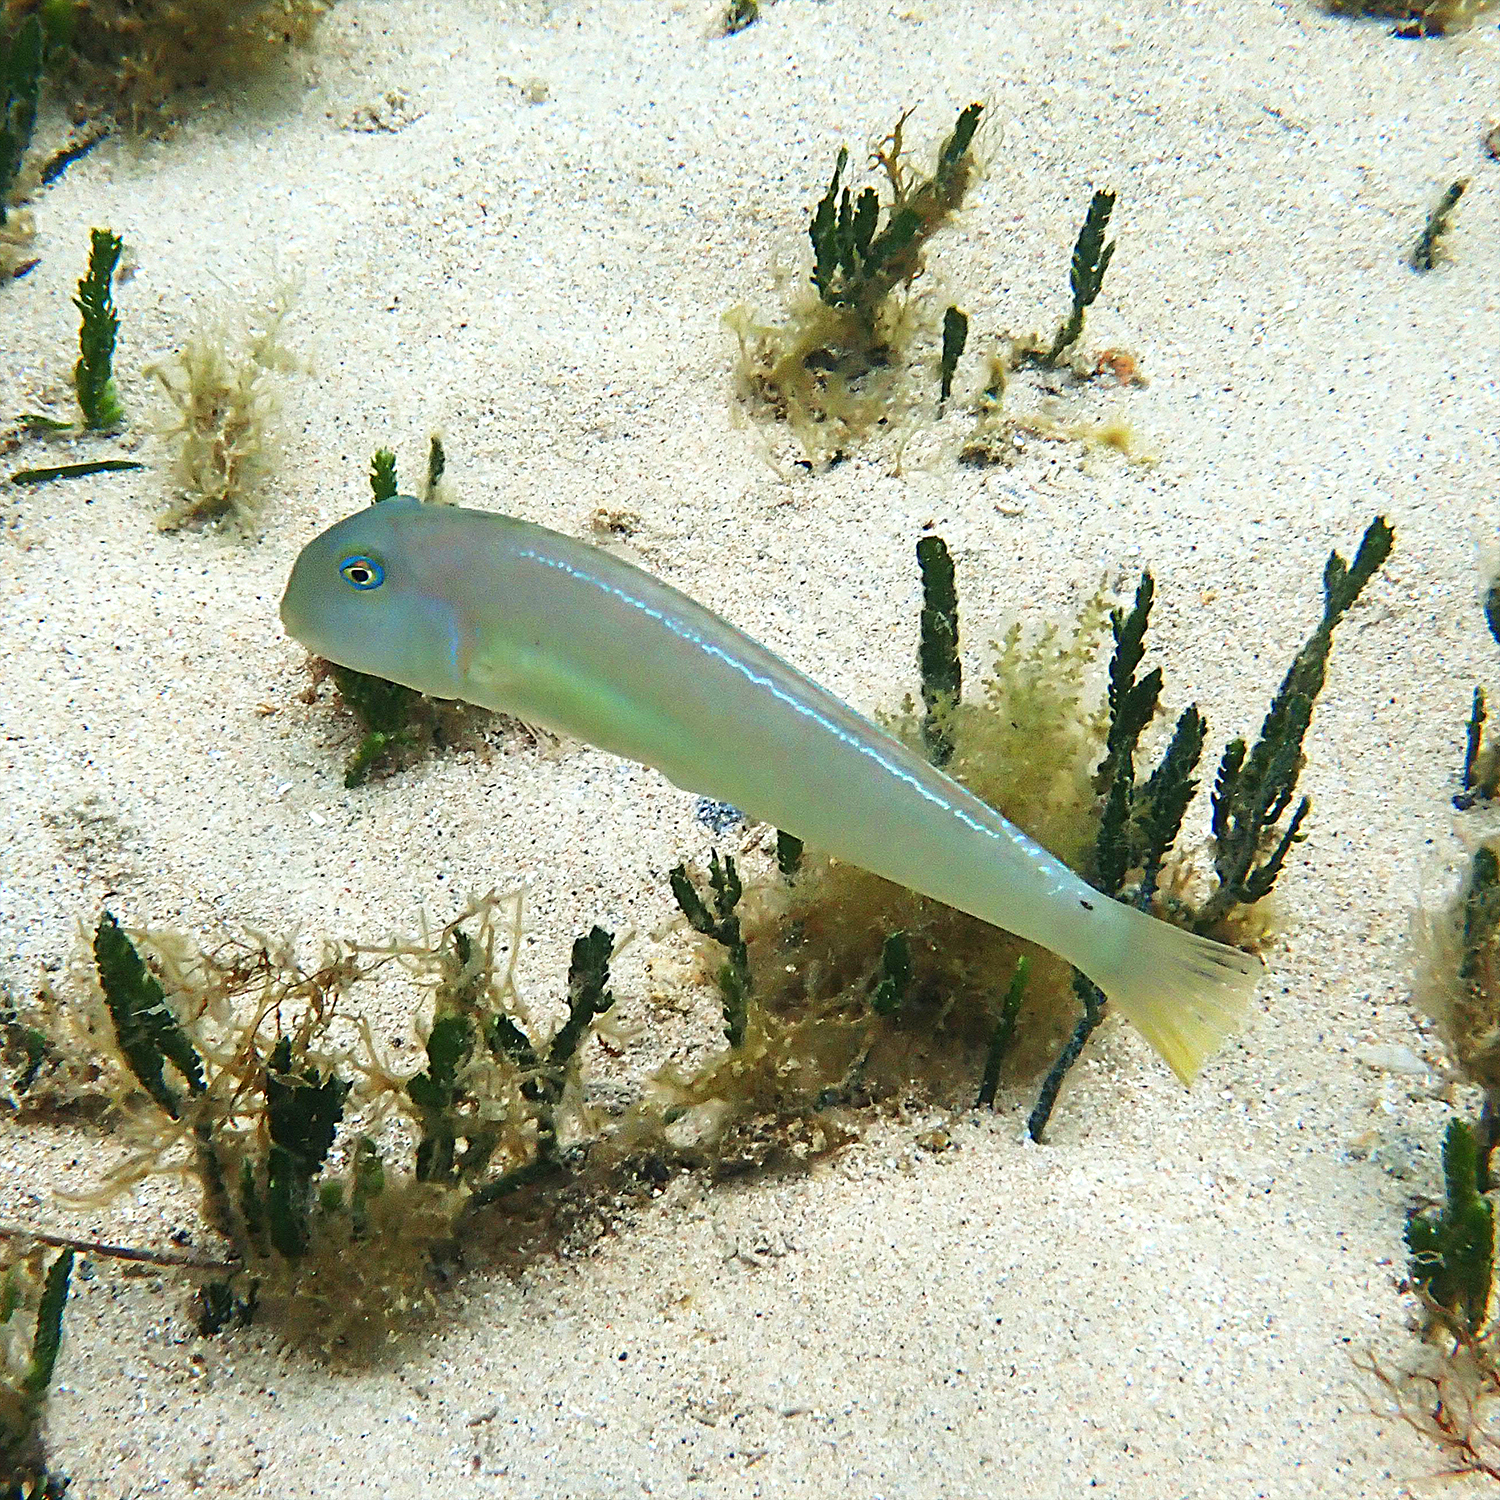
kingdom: Animalia
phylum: Chordata
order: Perciformes
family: Labridae
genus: Cymolutes
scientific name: Cymolutes praetextatus
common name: Knife razorfish
